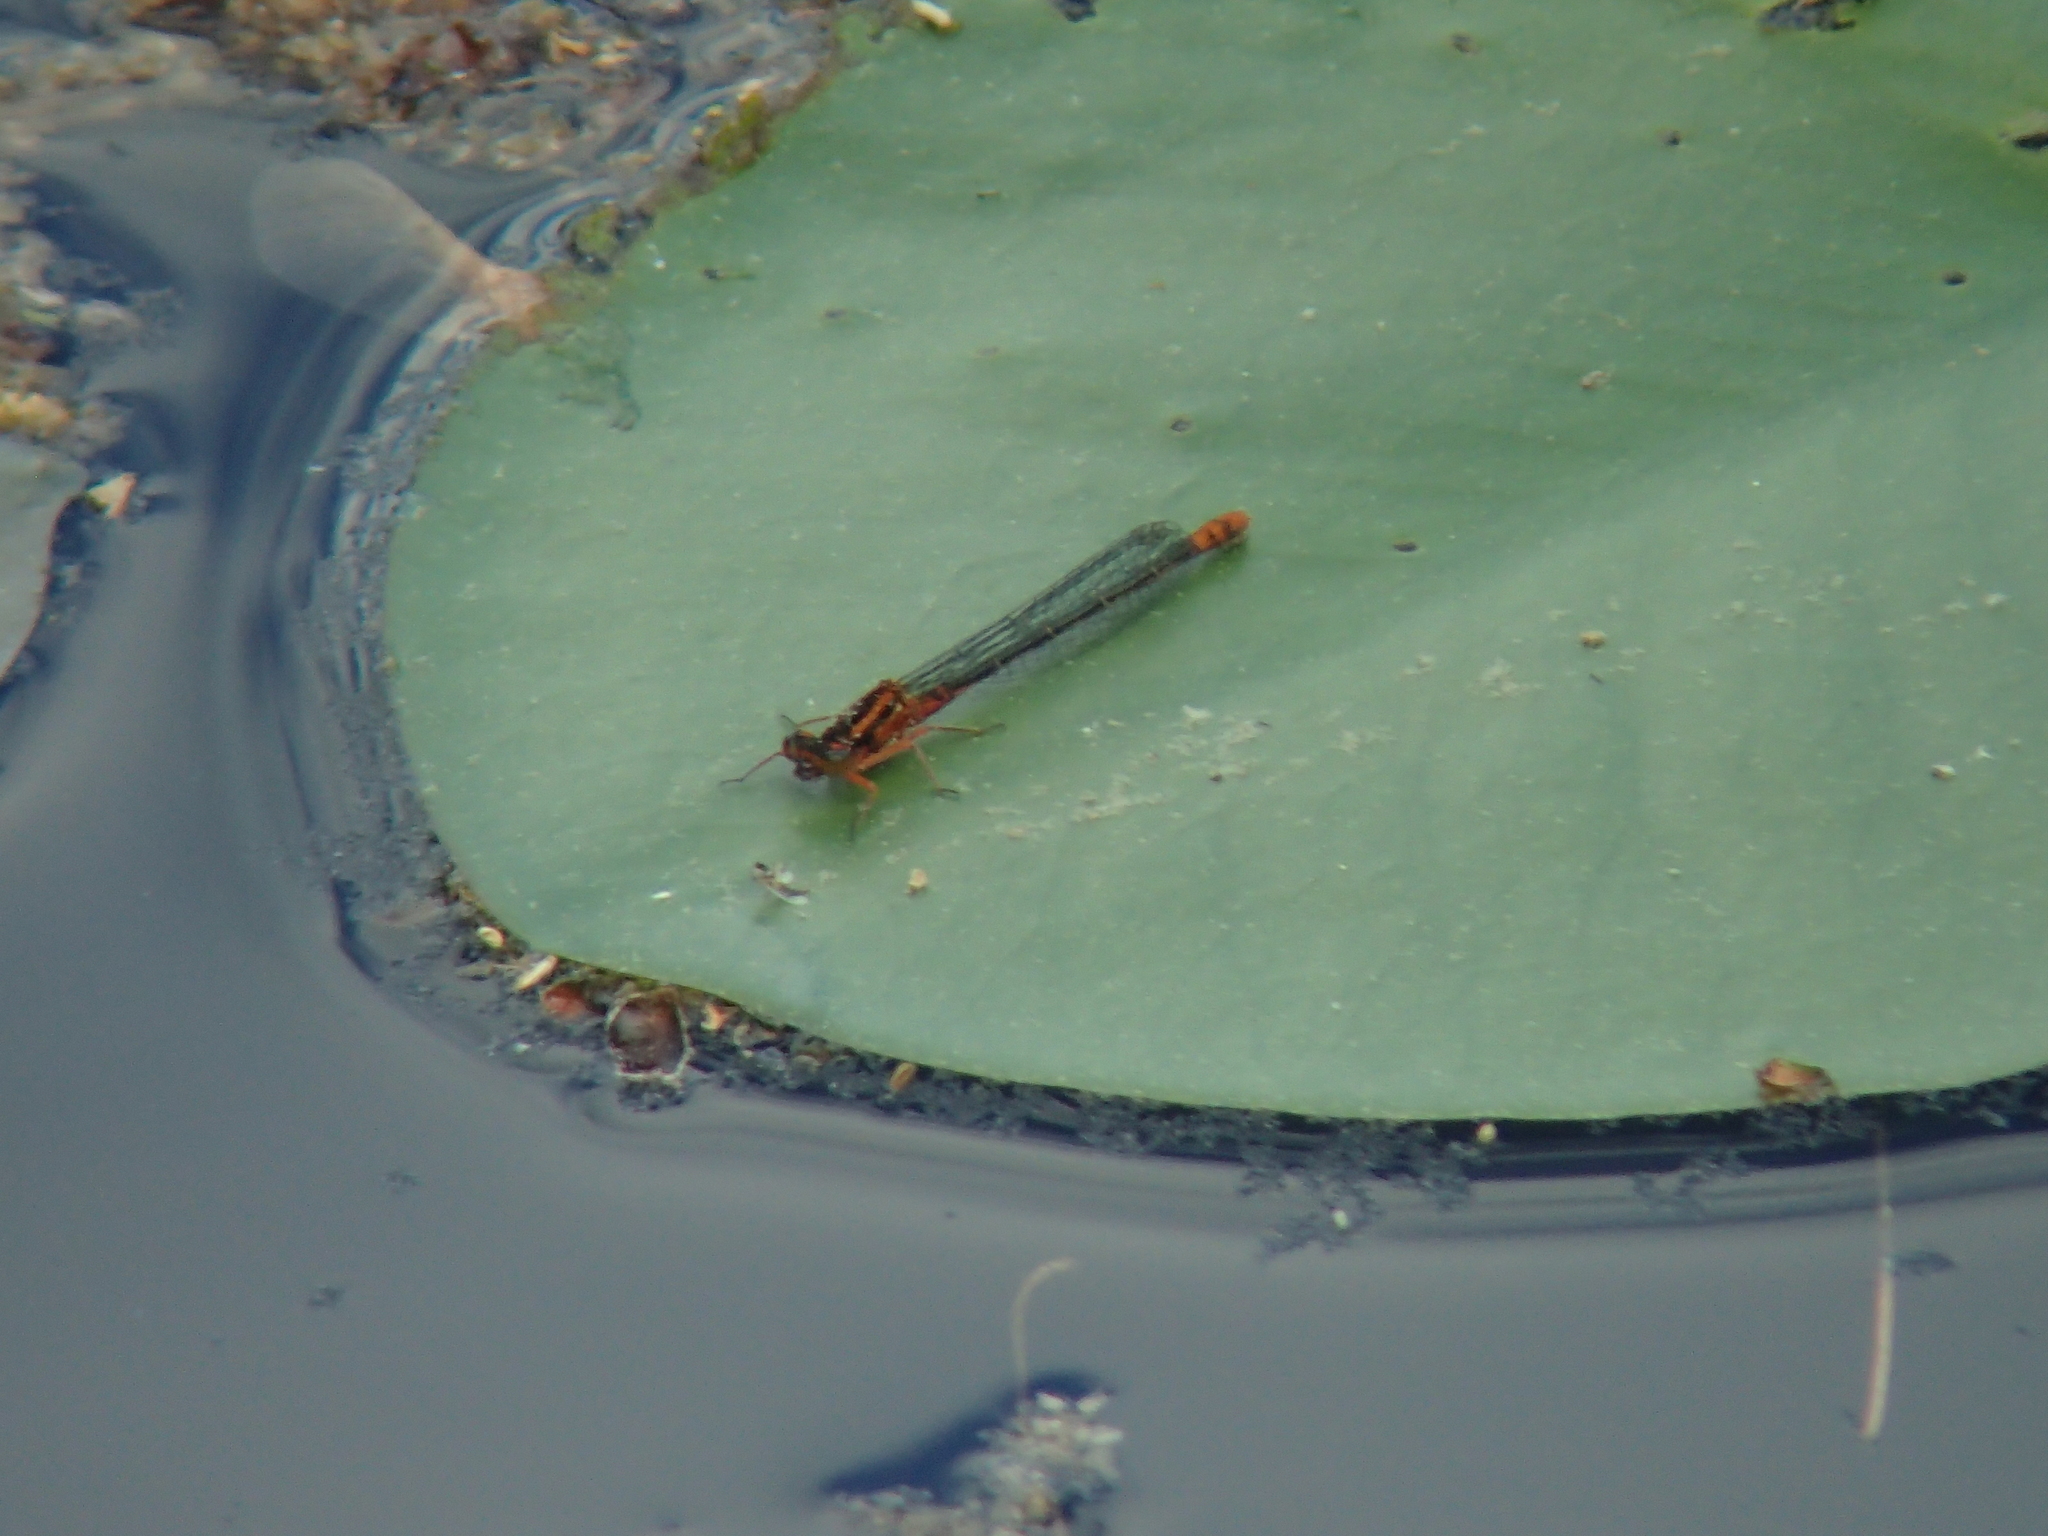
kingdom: Animalia
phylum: Arthropoda
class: Insecta
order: Odonata
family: Coenagrionidae
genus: Ischnura
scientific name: Ischnura kellicotti
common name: Lilypad forktail
